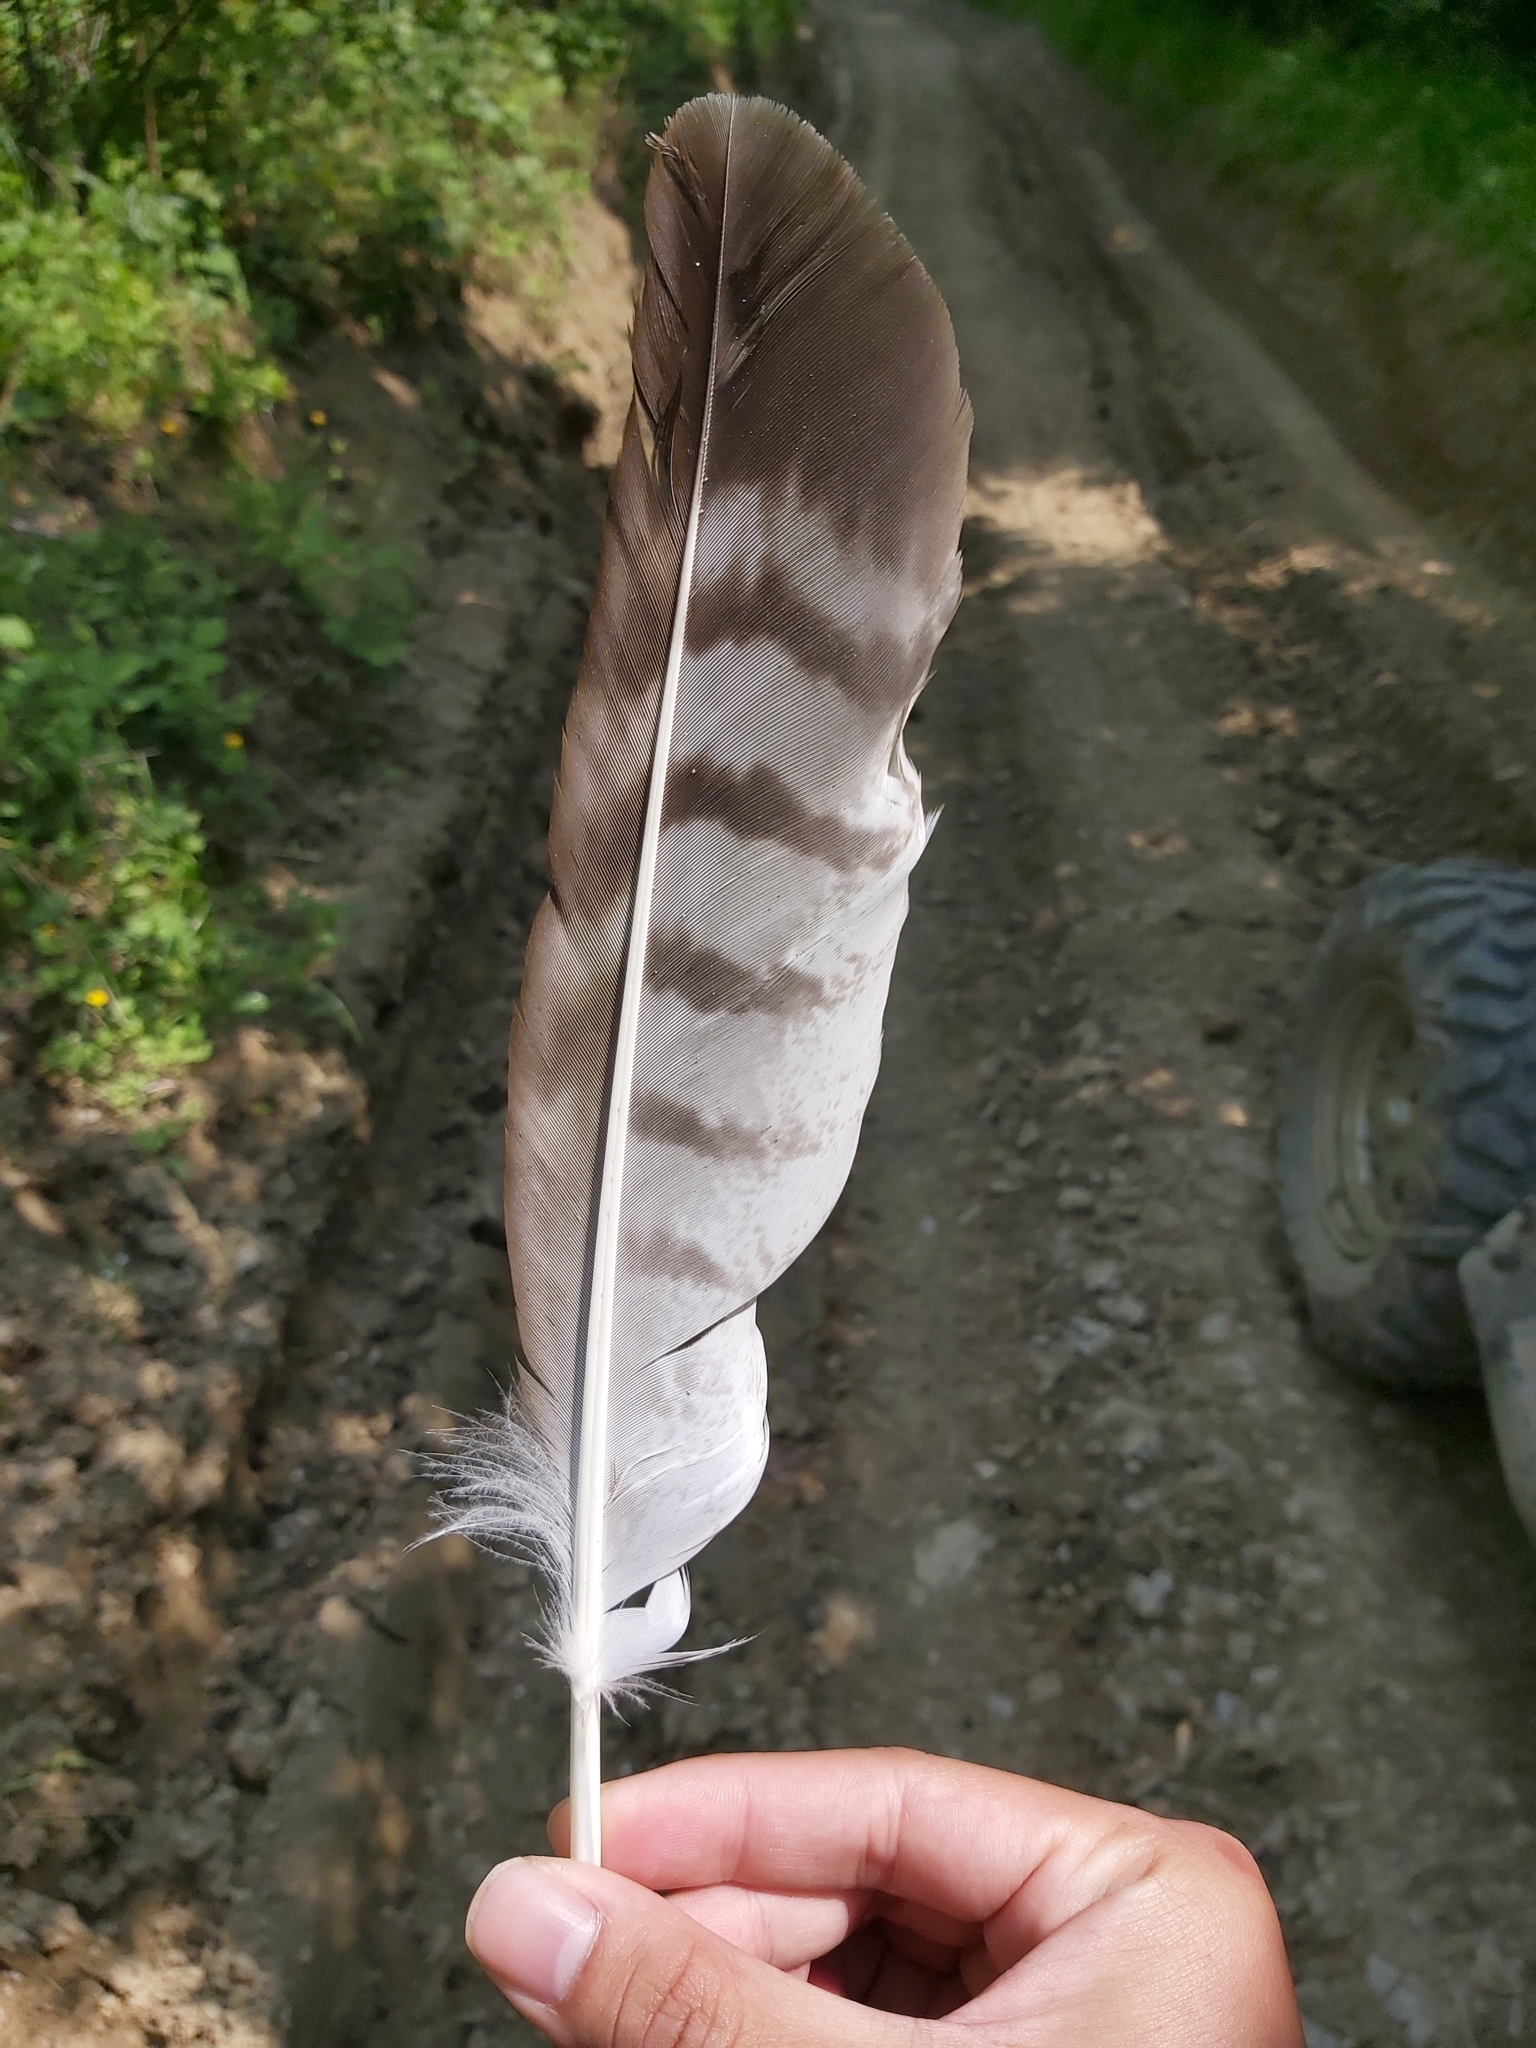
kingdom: Animalia
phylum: Chordata
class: Aves
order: Accipitriformes
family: Accipitridae
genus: Buteo
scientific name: Buteo buteo
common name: Common buzzard
